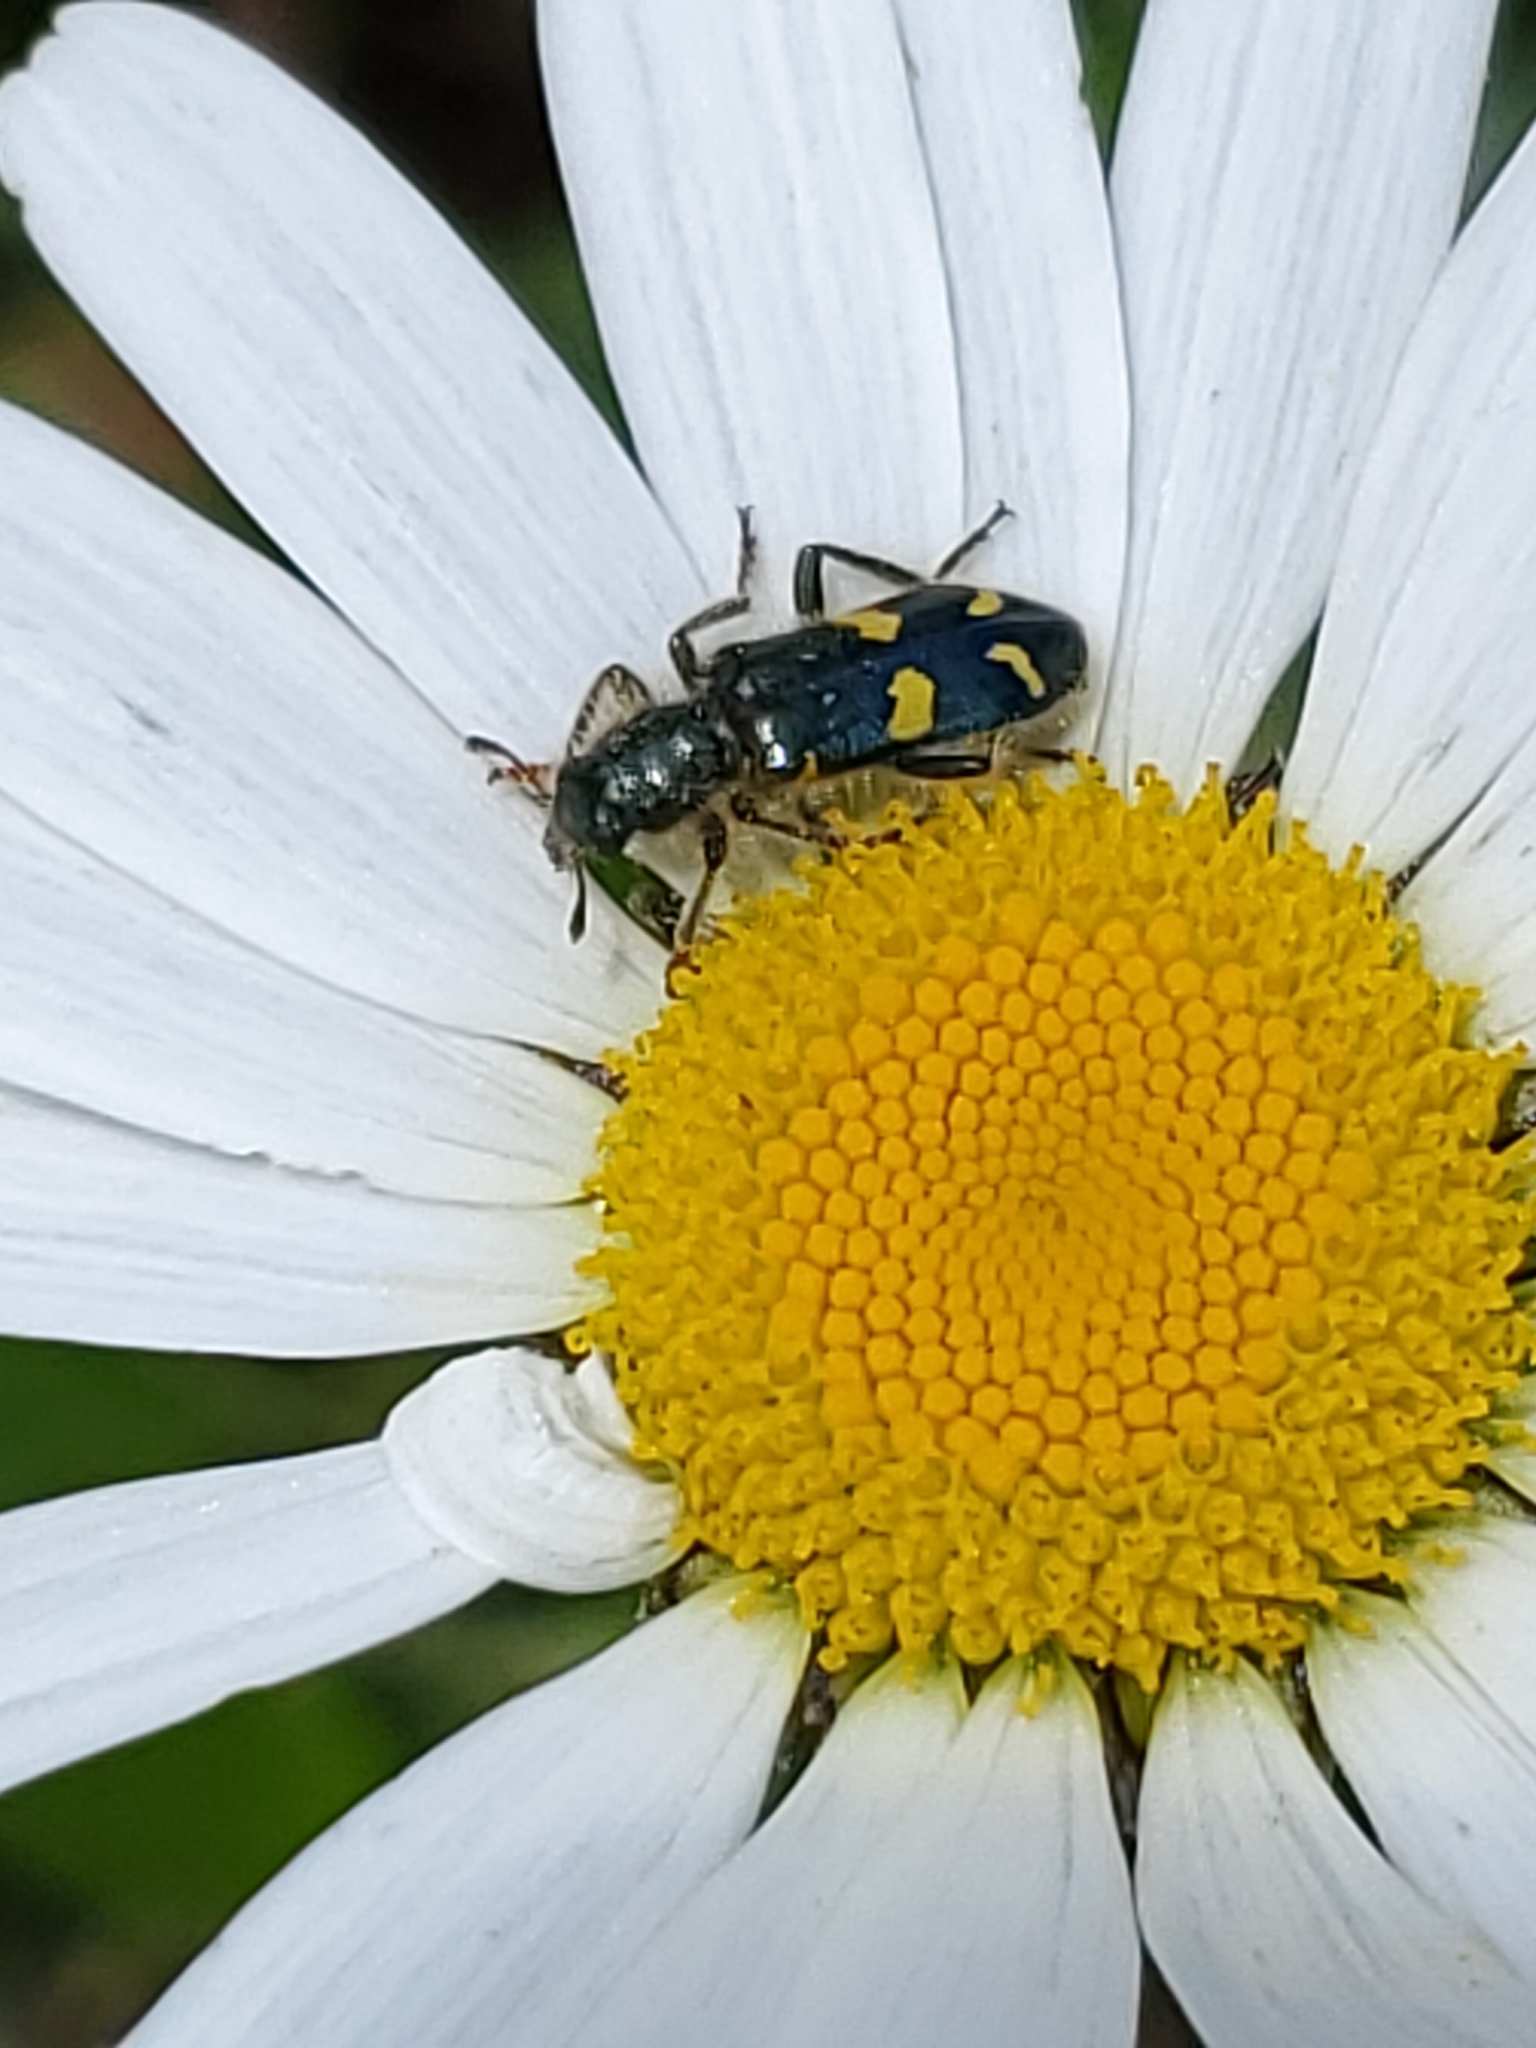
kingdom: Animalia
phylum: Arthropoda
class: Insecta
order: Coleoptera
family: Cleridae
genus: Trichodes
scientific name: Trichodes ornatus
